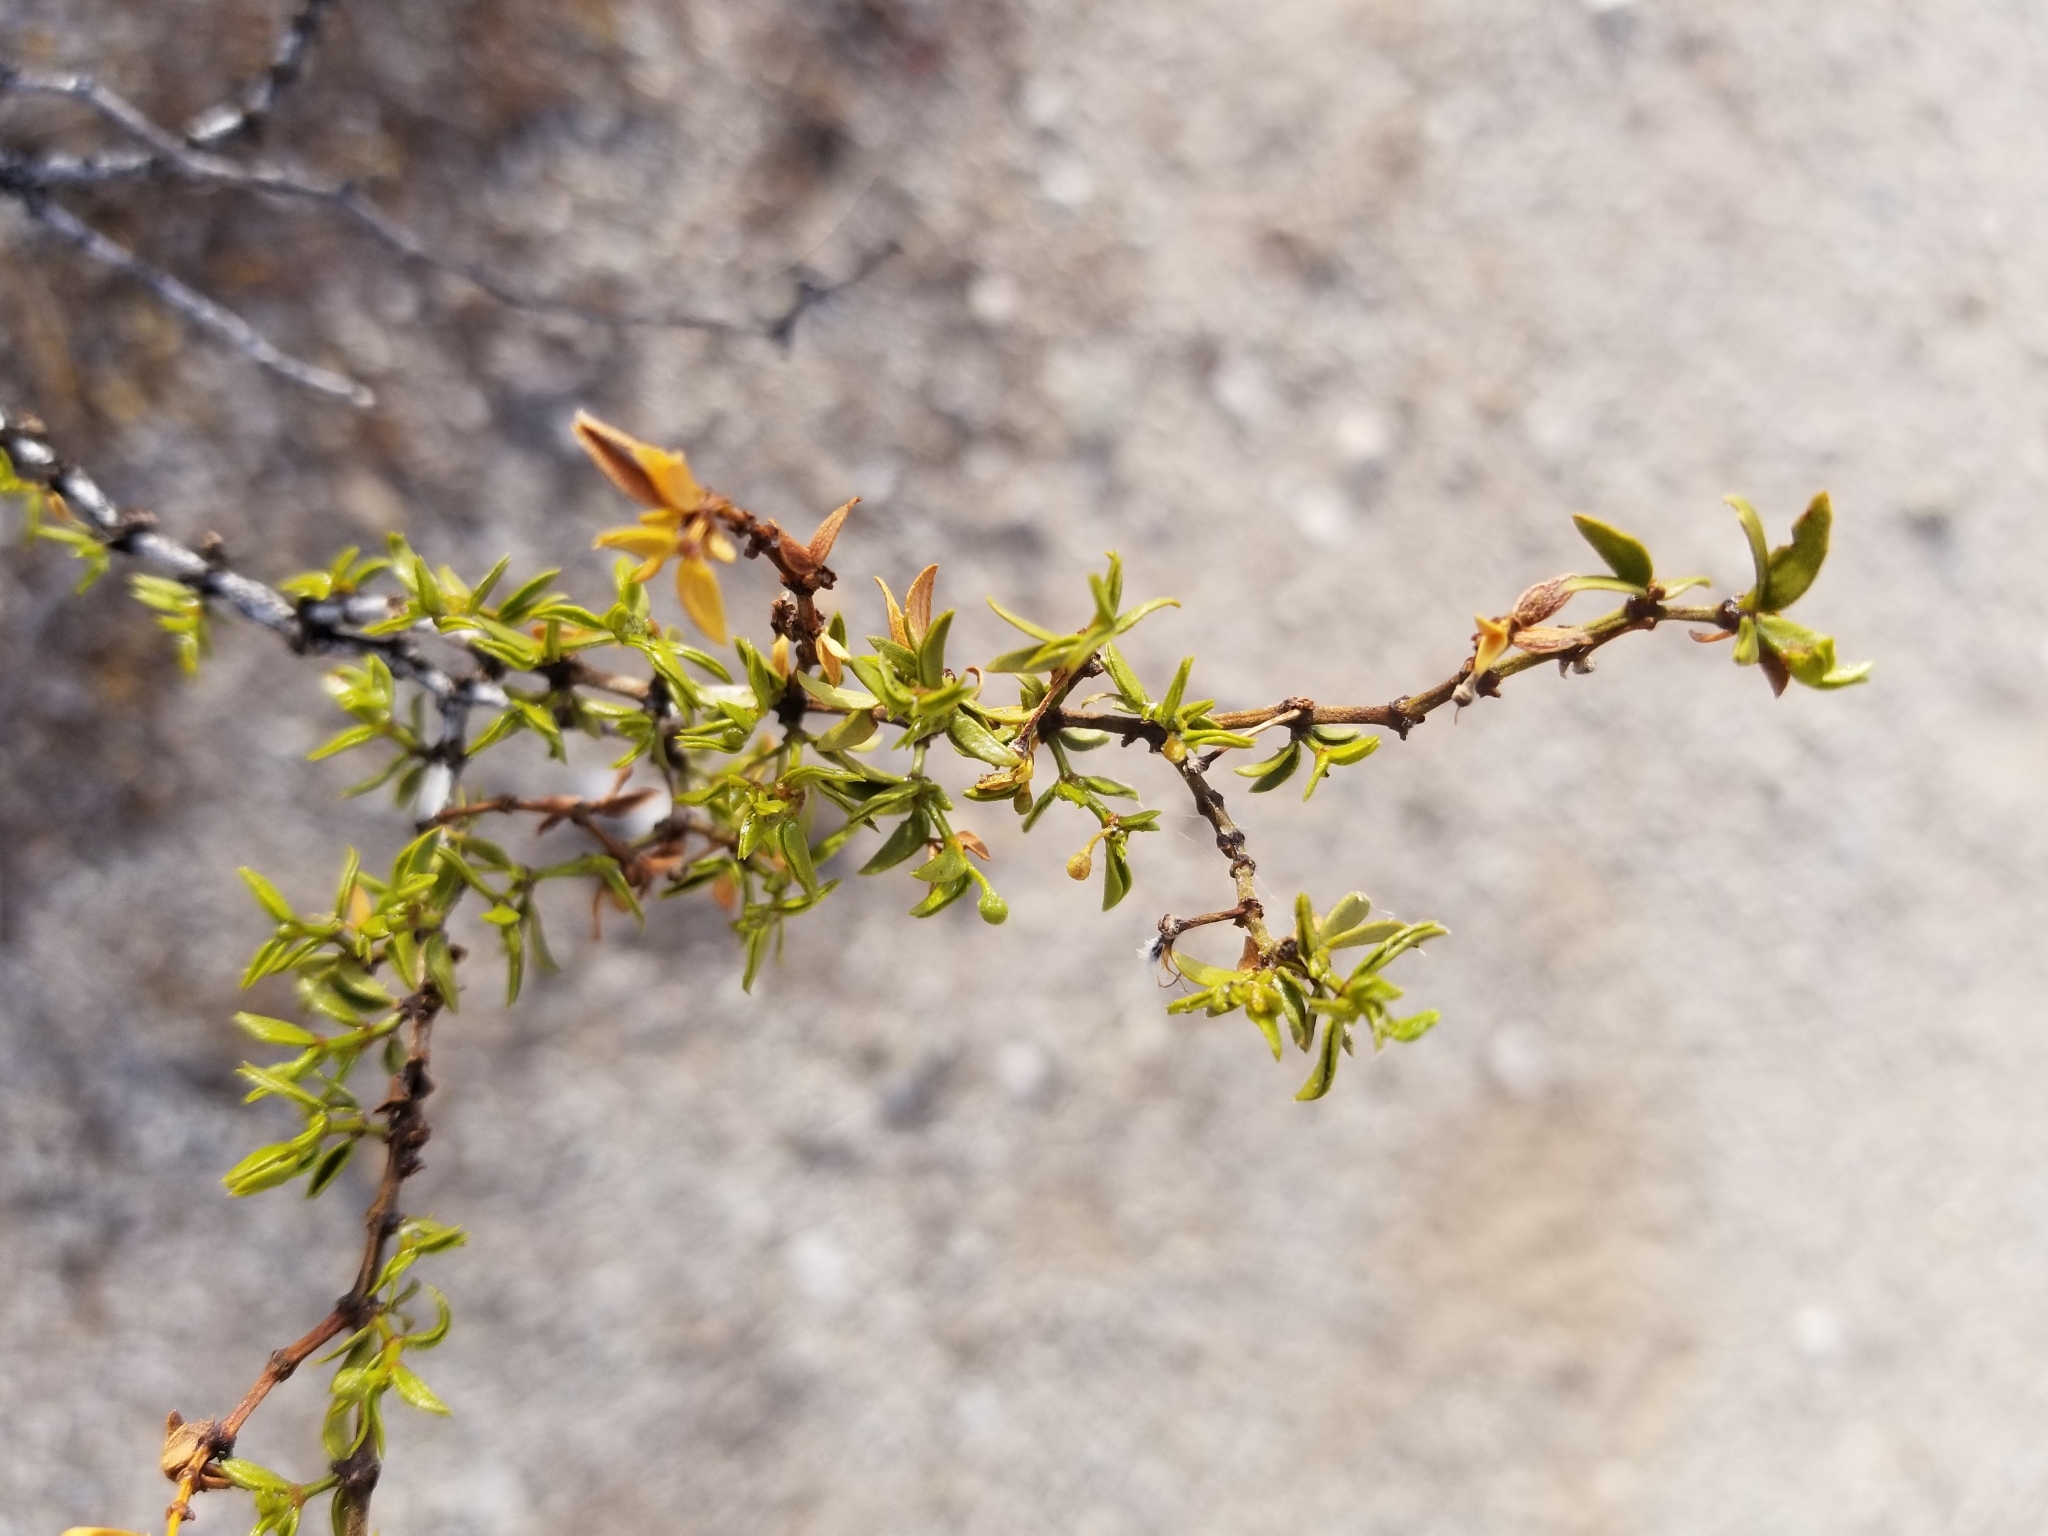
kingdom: Plantae
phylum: Tracheophyta
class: Magnoliopsida
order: Zygophyllales
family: Zygophyllaceae
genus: Larrea
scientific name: Larrea tridentata
